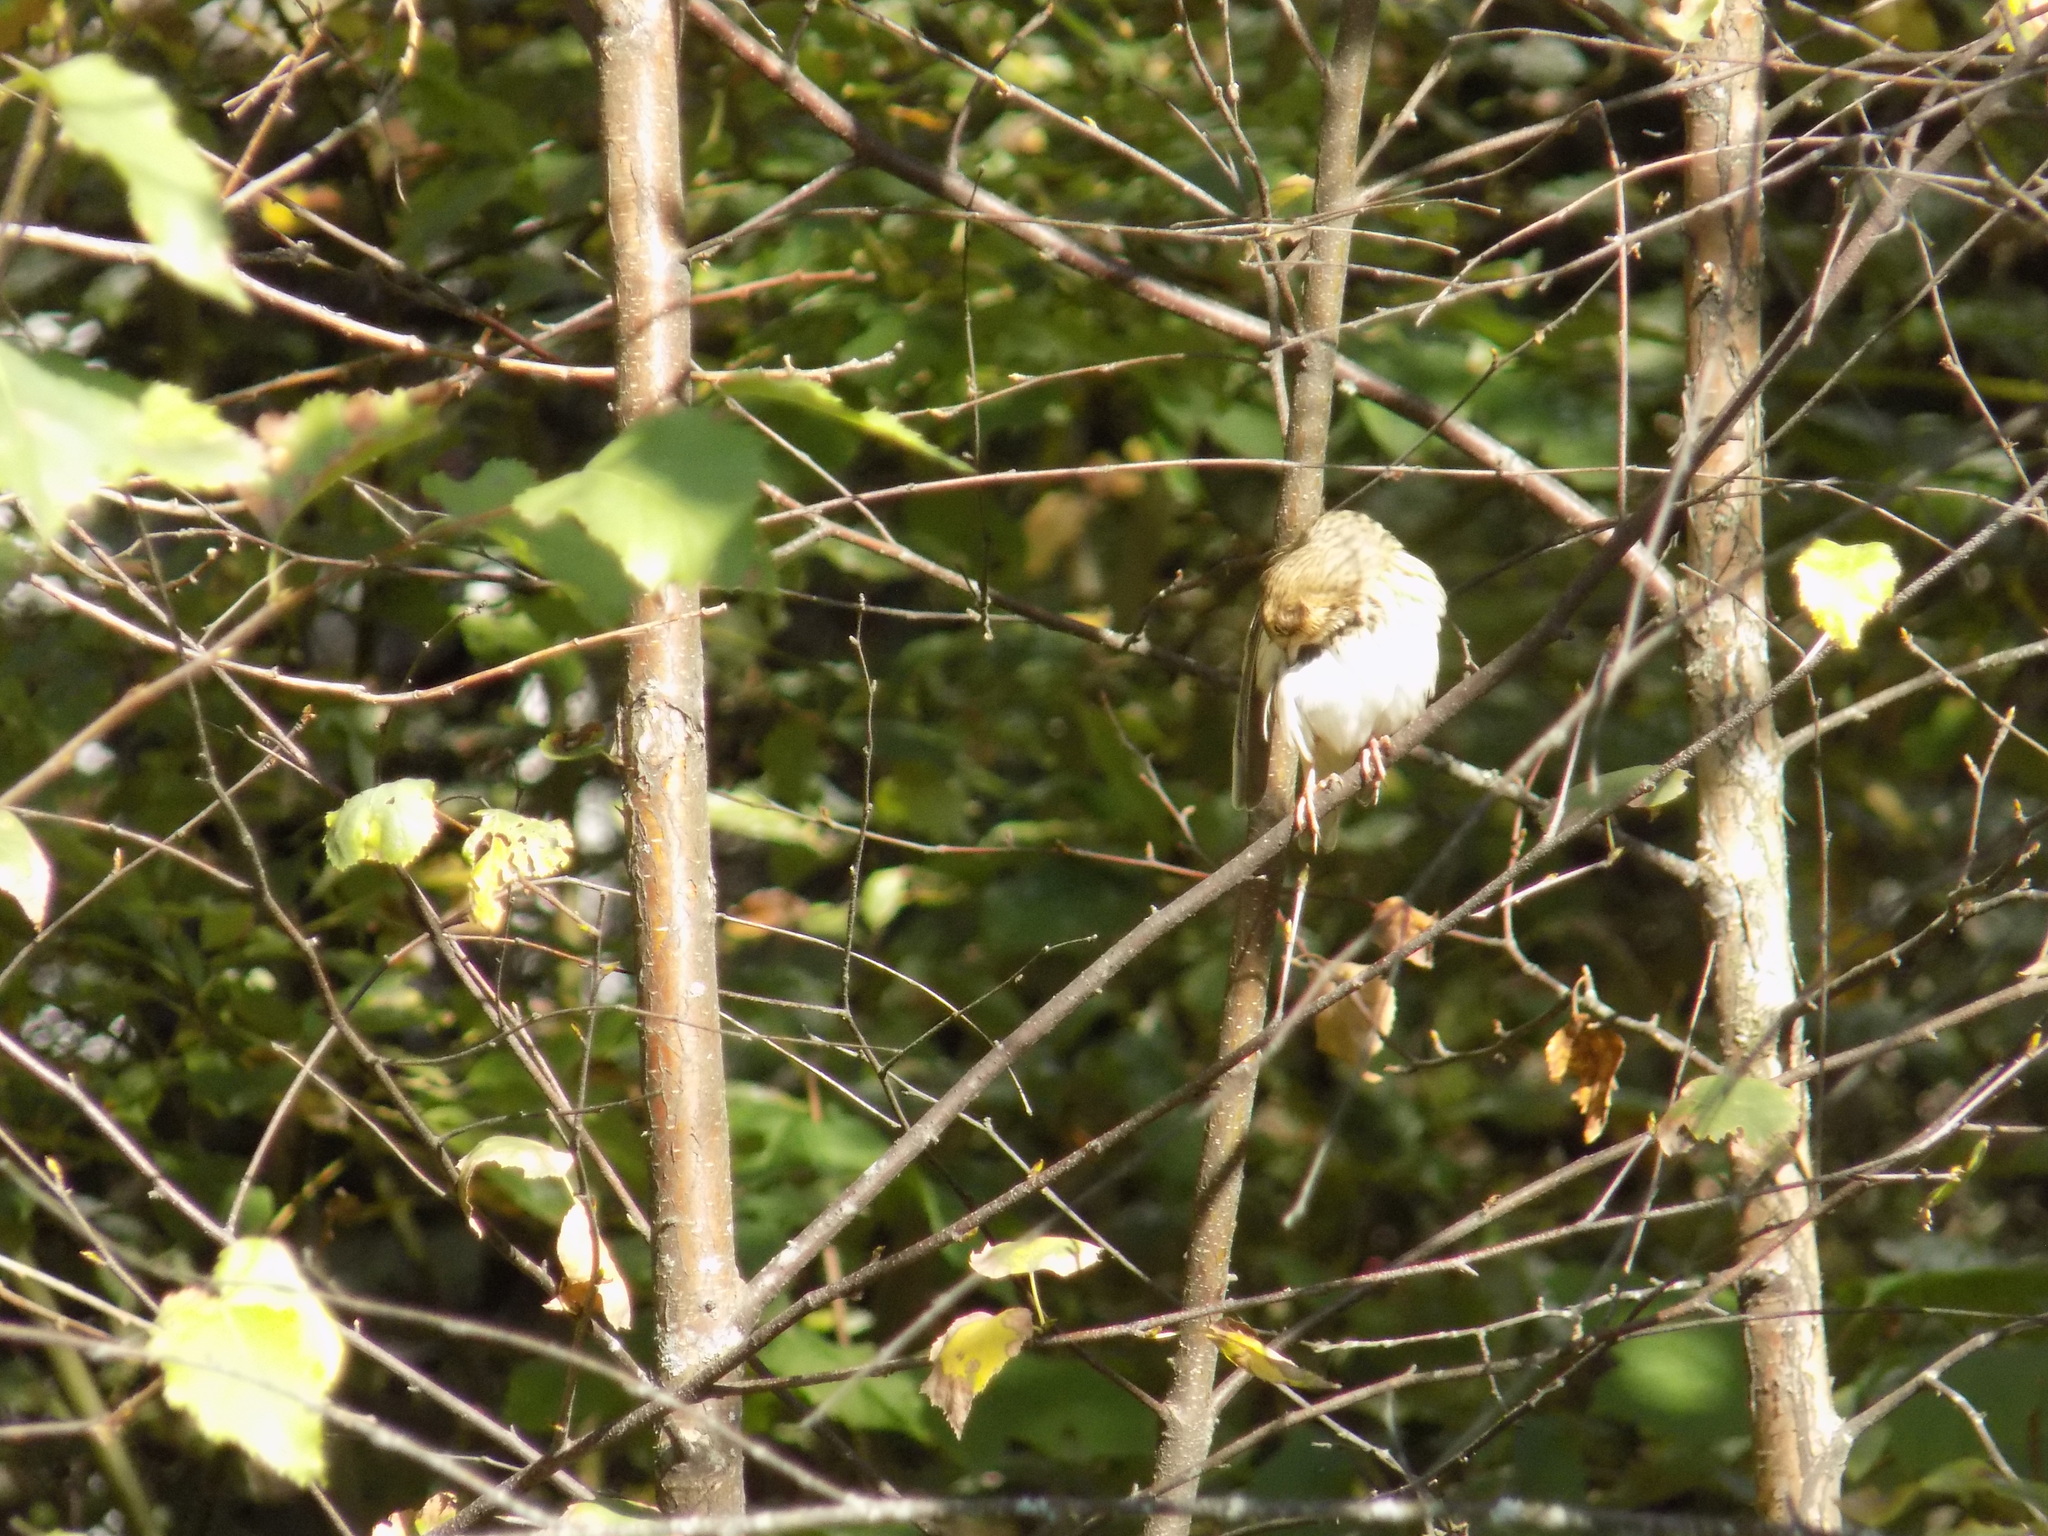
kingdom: Animalia
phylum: Chordata
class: Aves
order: Passeriformes
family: Motacillidae
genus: Anthus
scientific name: Anthus trivialis
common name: Tree pipit
